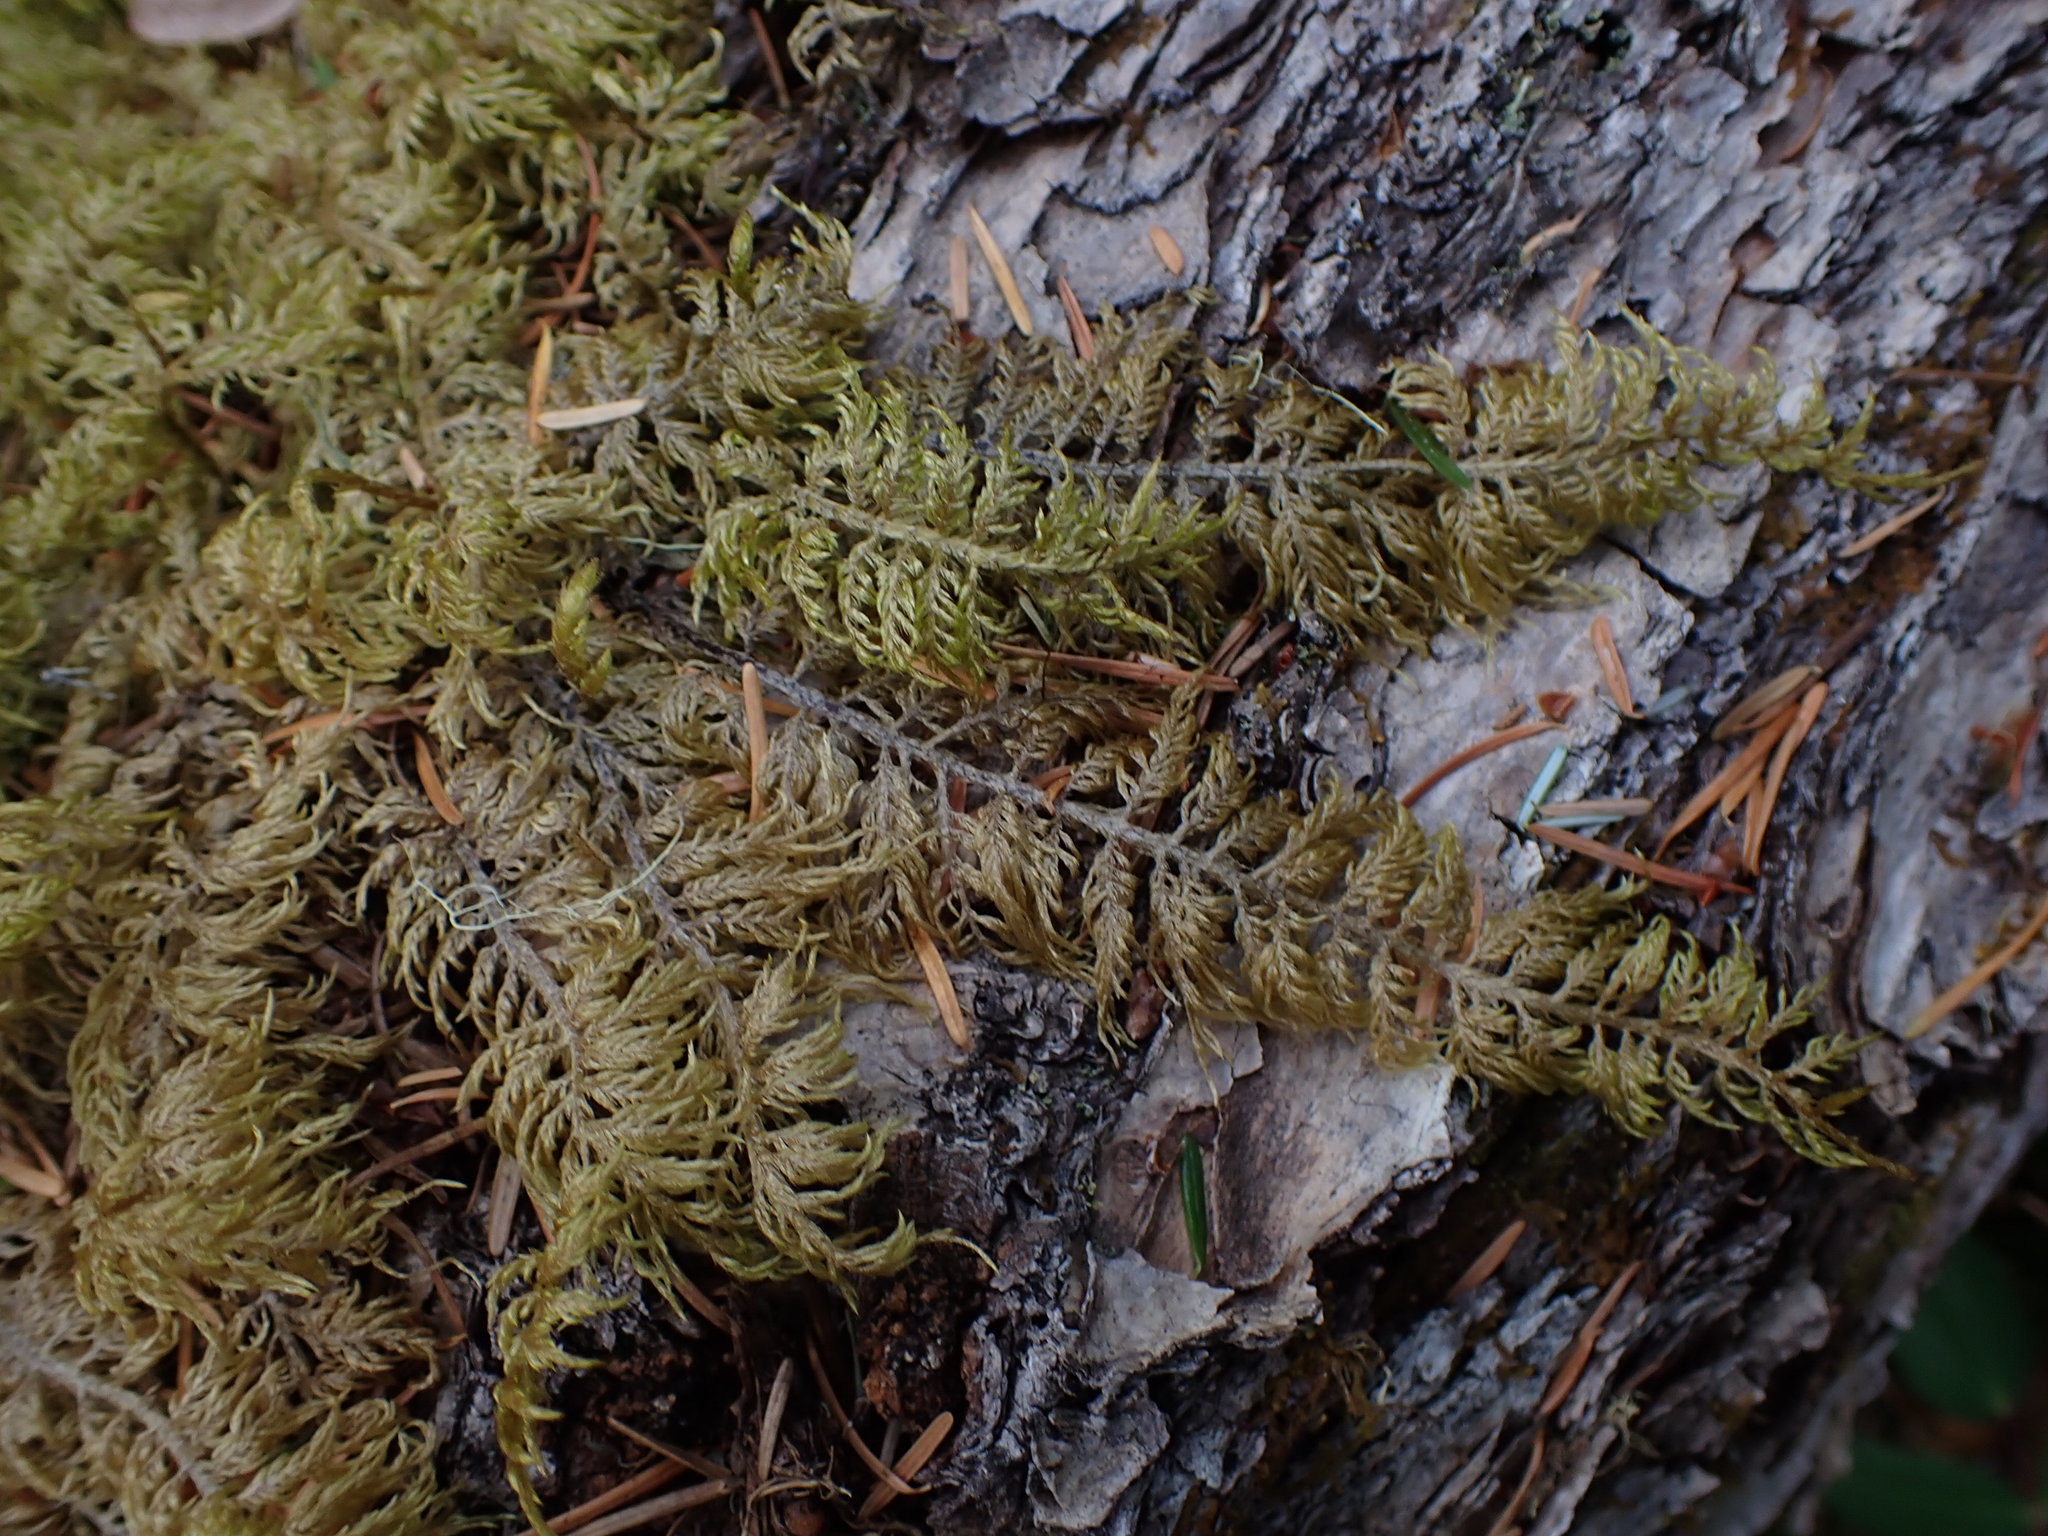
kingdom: Plantae
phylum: Bryophyta
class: Bryopsida
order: Hypnales
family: Hylocomiaceae
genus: Hylocomium
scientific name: Hylocomium splendens
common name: Stairstep moss
